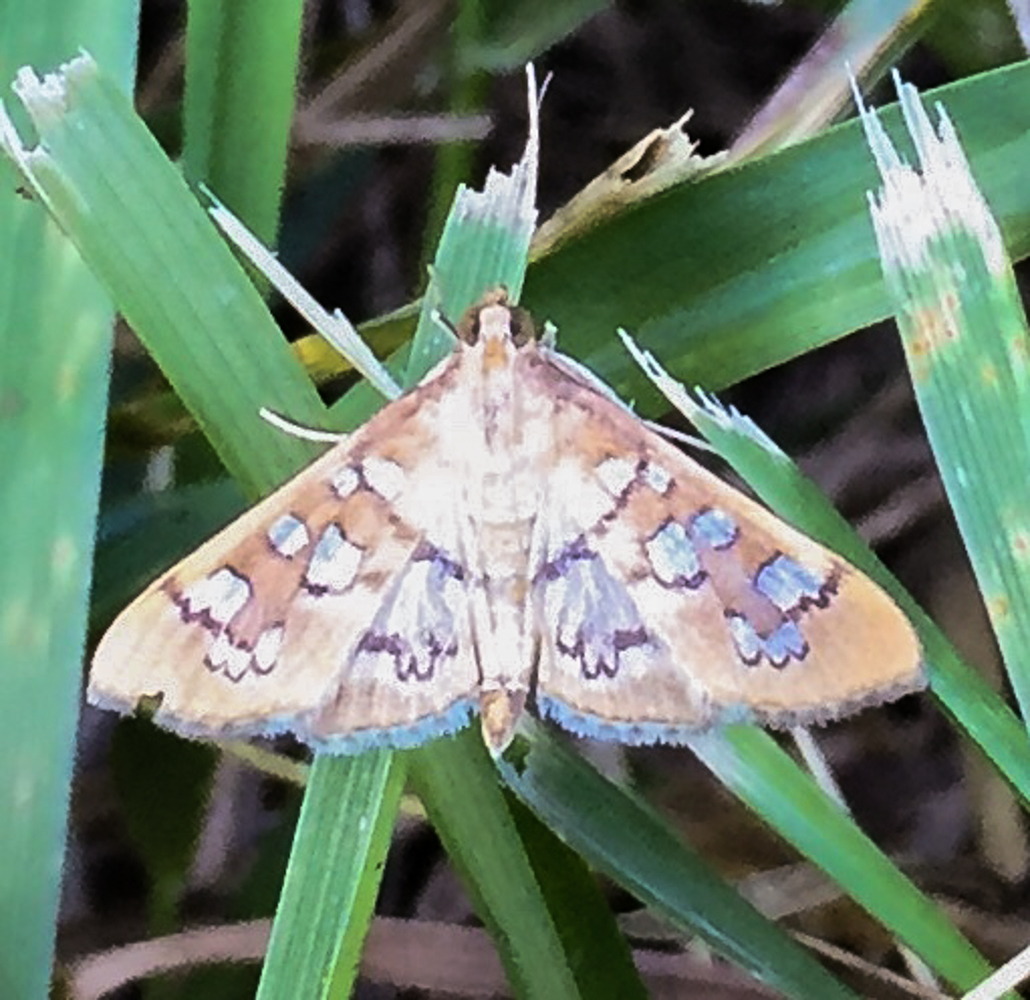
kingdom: Animalia
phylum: Arthropoda
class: Insecta
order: Lepidoptera
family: Crambidae
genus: Samea
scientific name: Samea baccatalis
